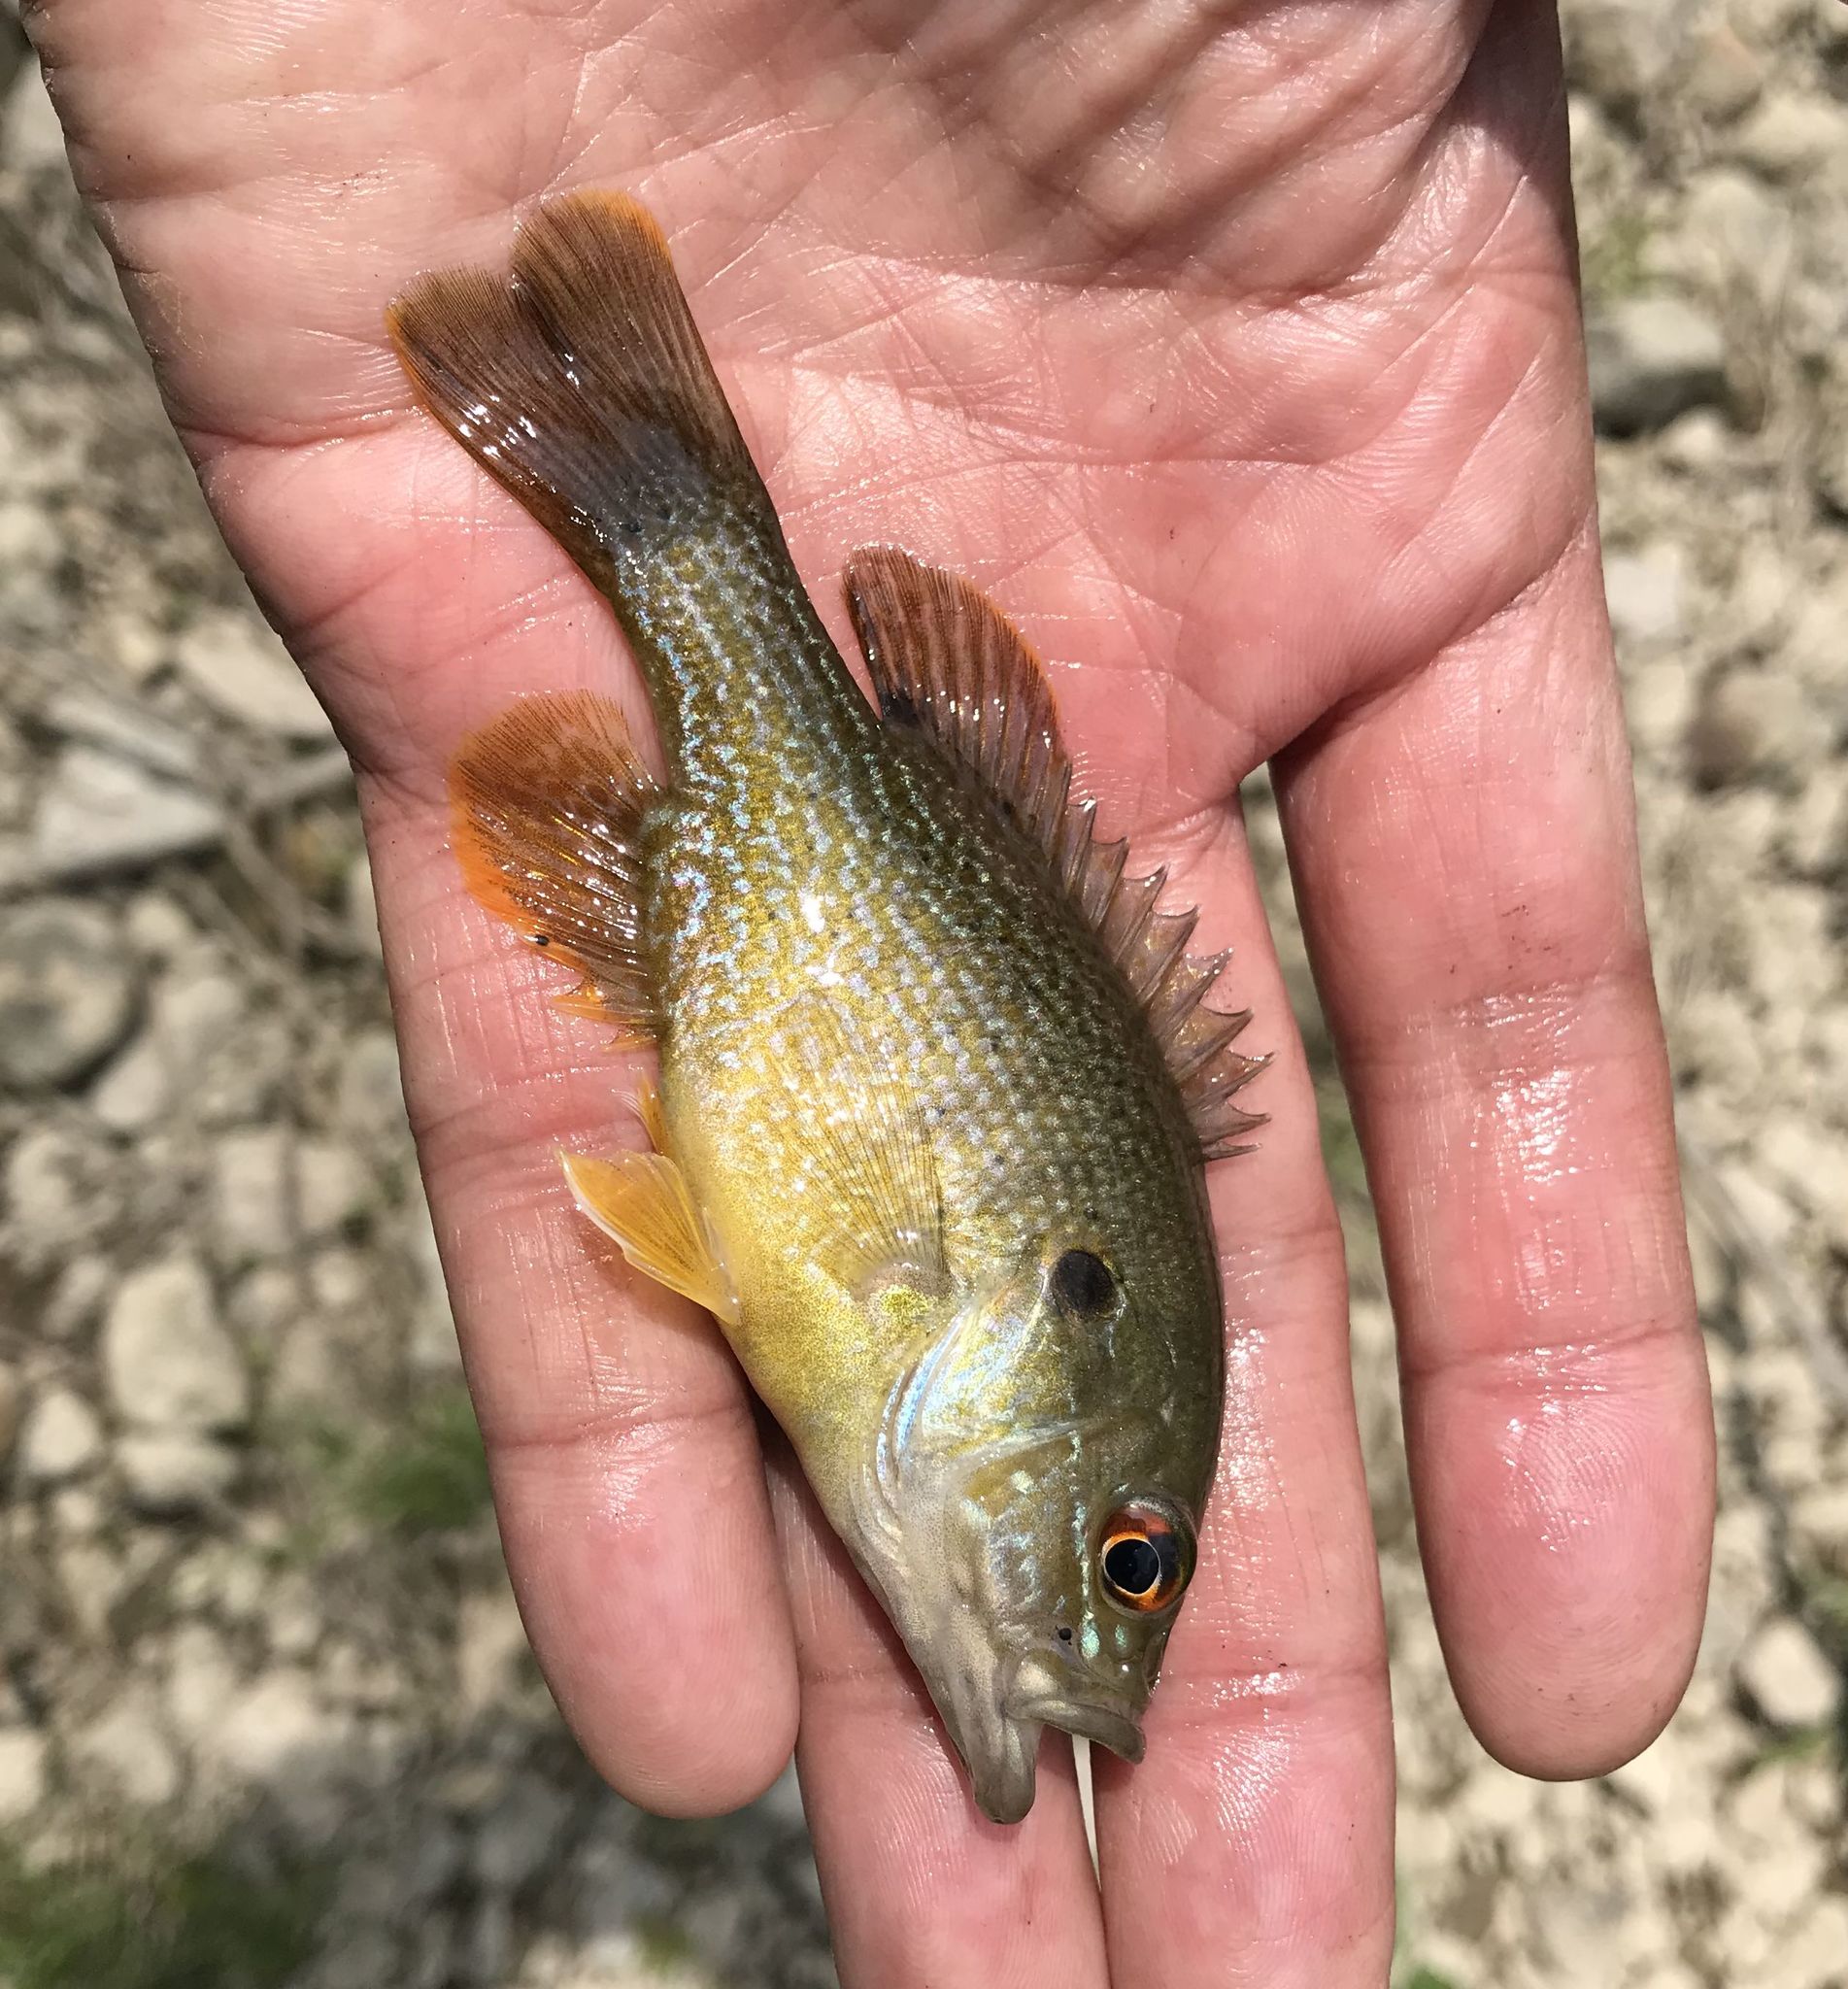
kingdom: Animalia
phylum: Chordata
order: Perciformes
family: Centrarchidae
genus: Lepomis
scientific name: Lepomis cyanellus
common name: Green sunfish
